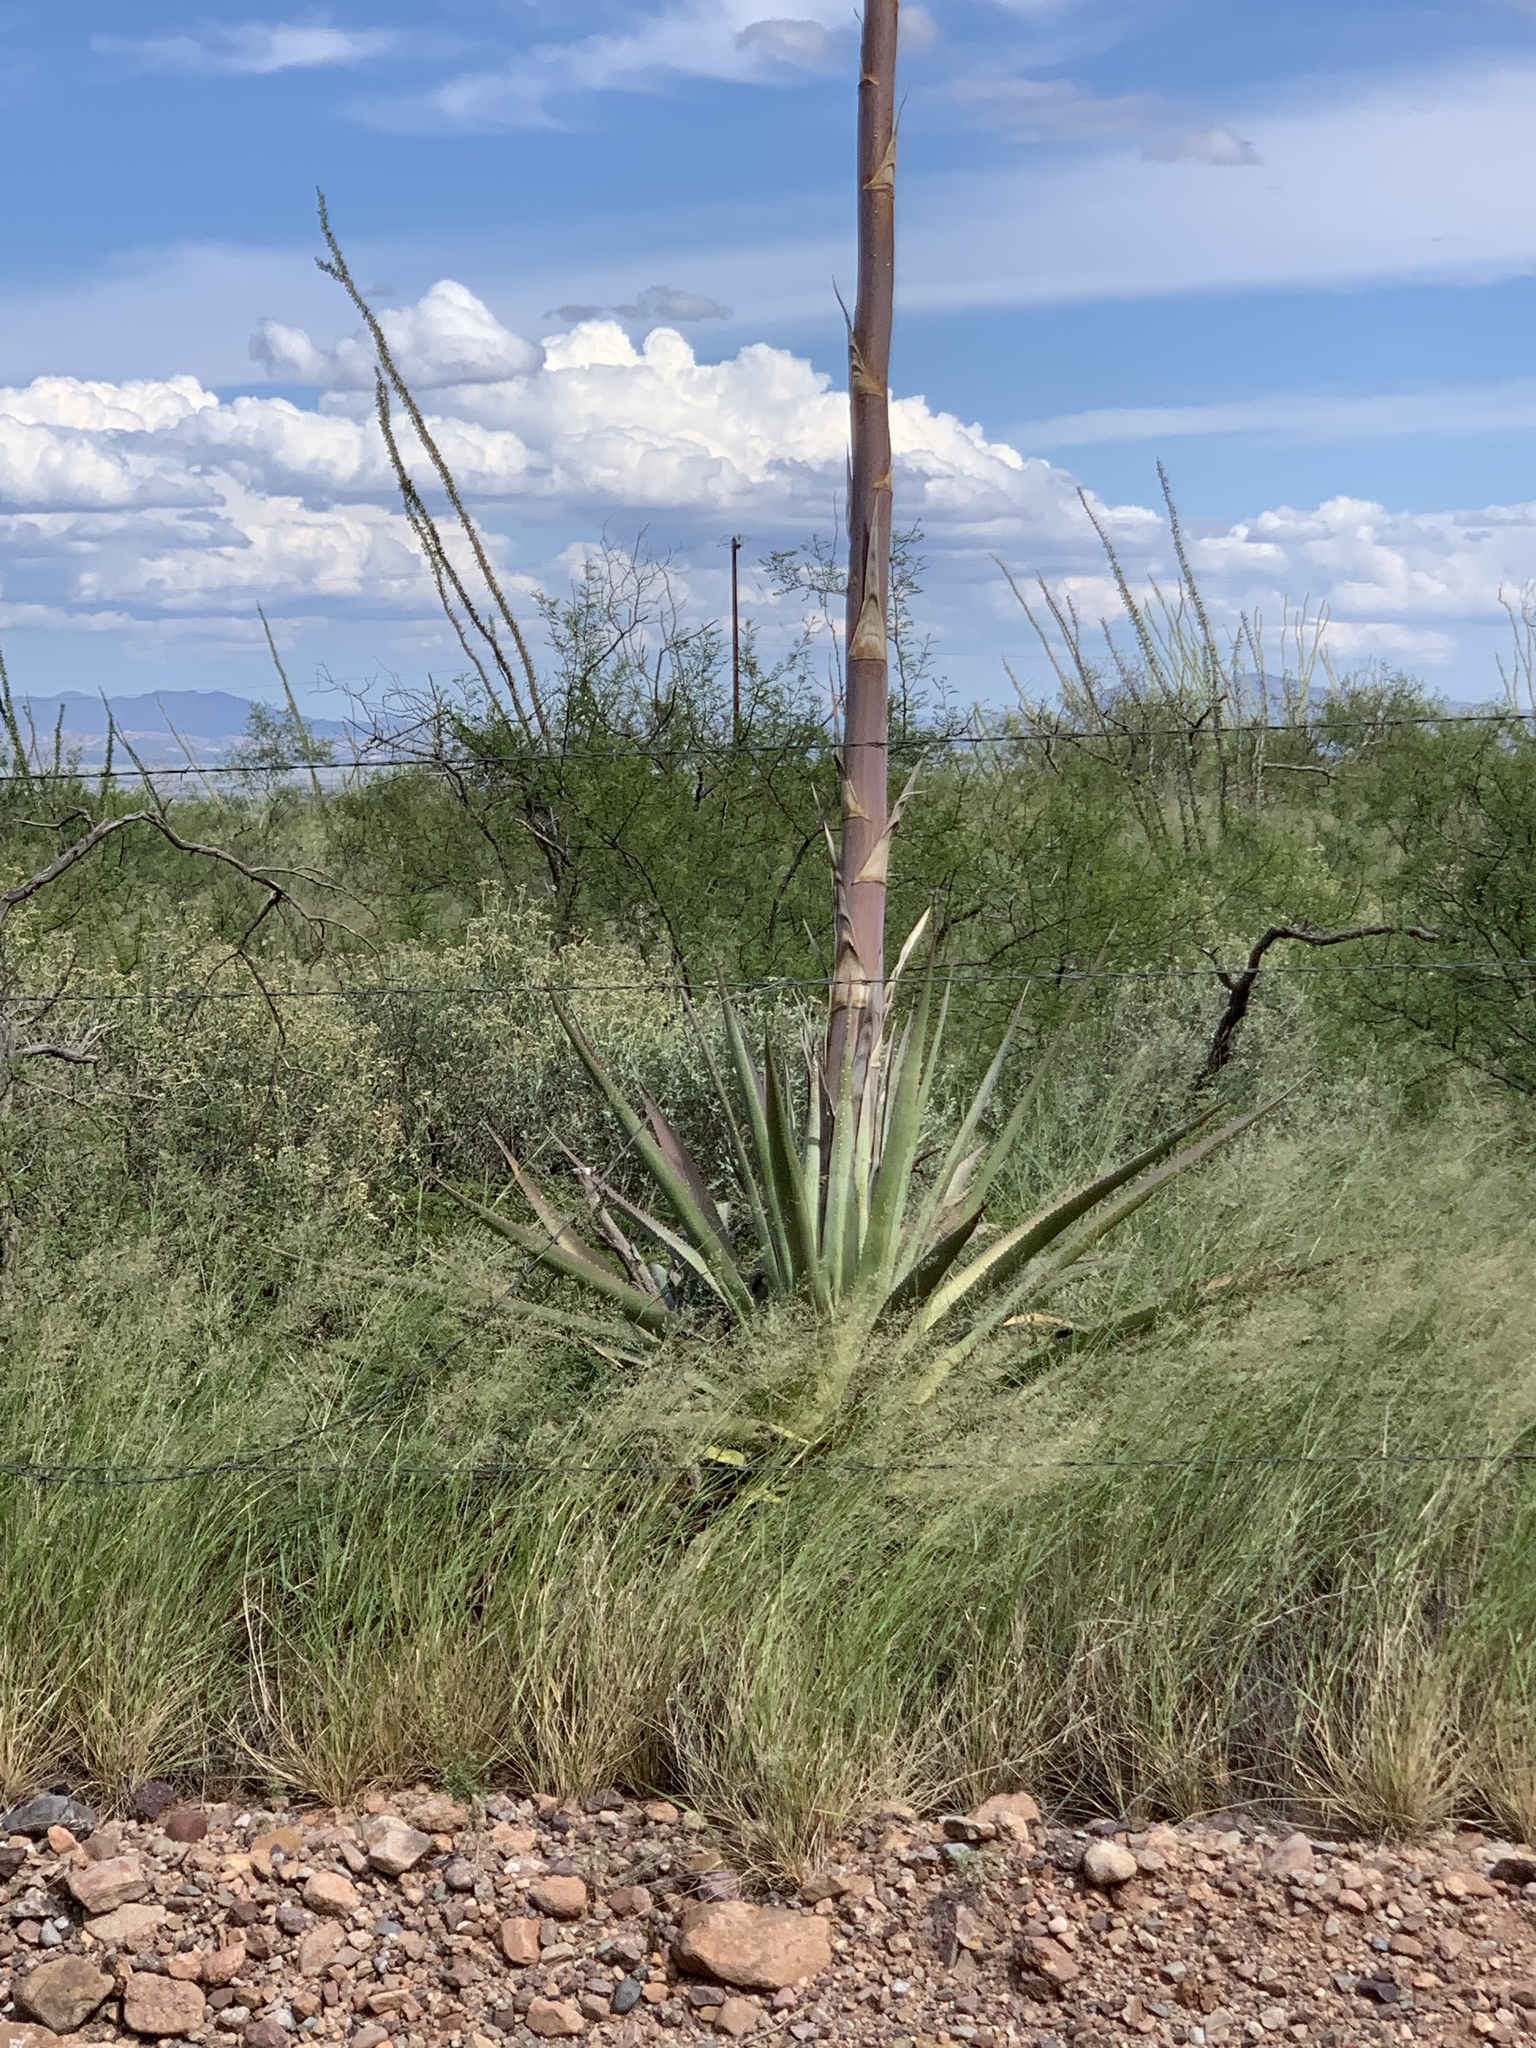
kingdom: Plantae
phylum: Tracheophyta
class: Liliopsida
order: Asparagales
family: Asparagaceae
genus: Agave
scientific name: Agave palmeri
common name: Palmer agave
